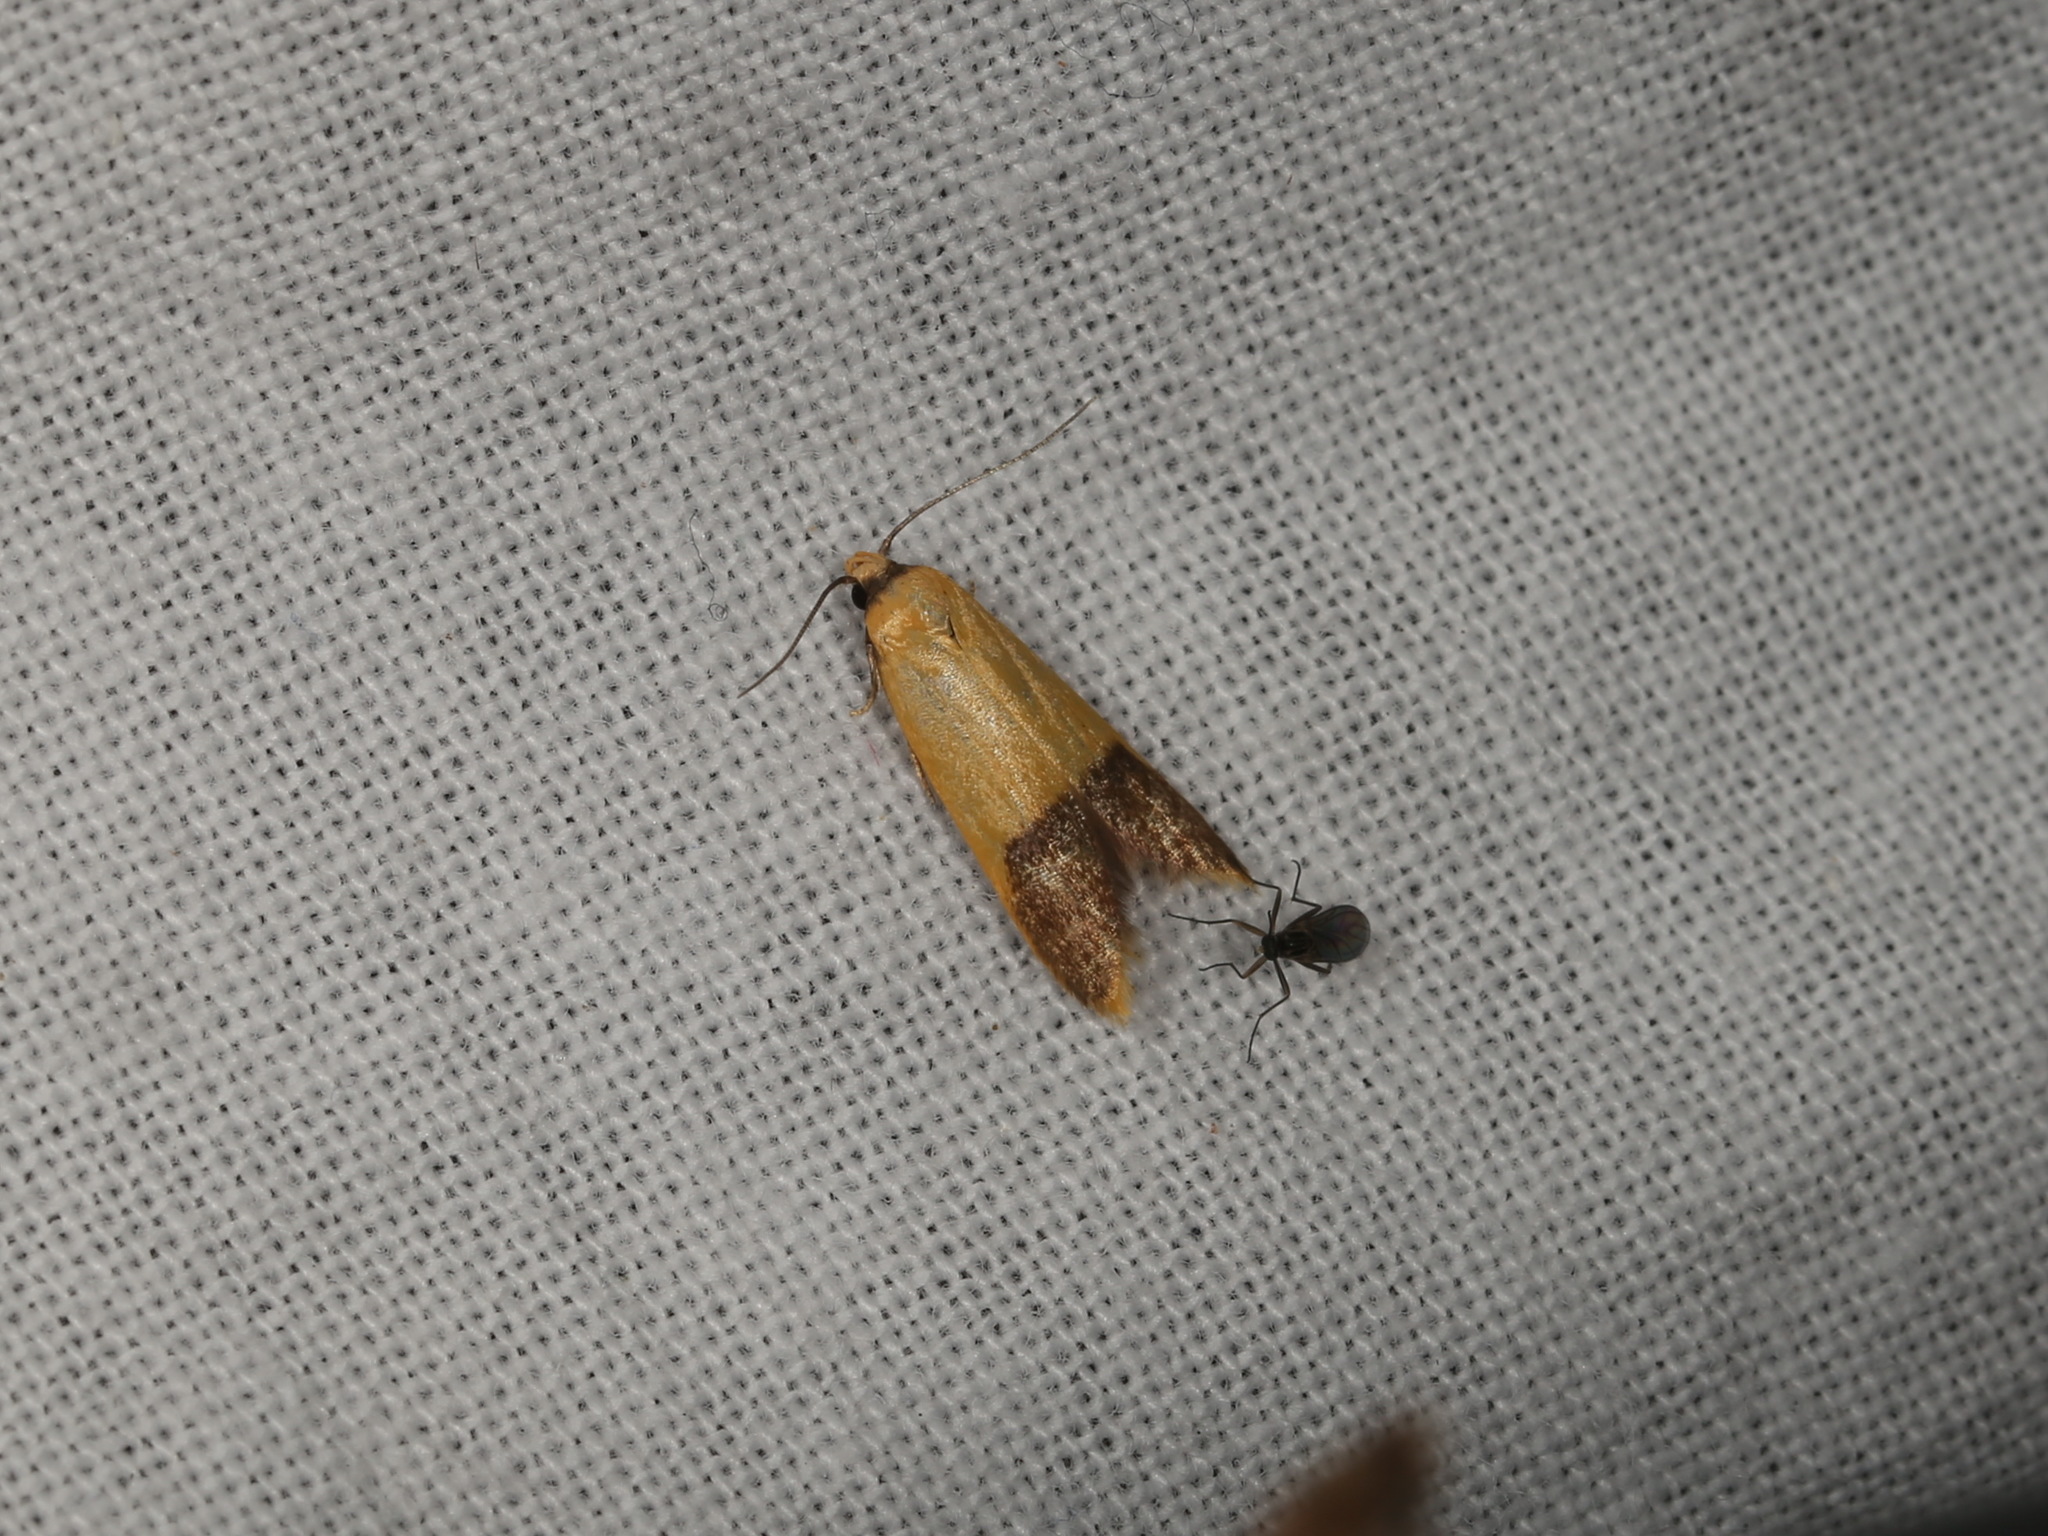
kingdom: Animalia
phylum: Arthropoda
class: Insecta
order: Lepidoptera
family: Oecophoridae
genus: Tachystola
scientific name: Tachystola stenoptera
